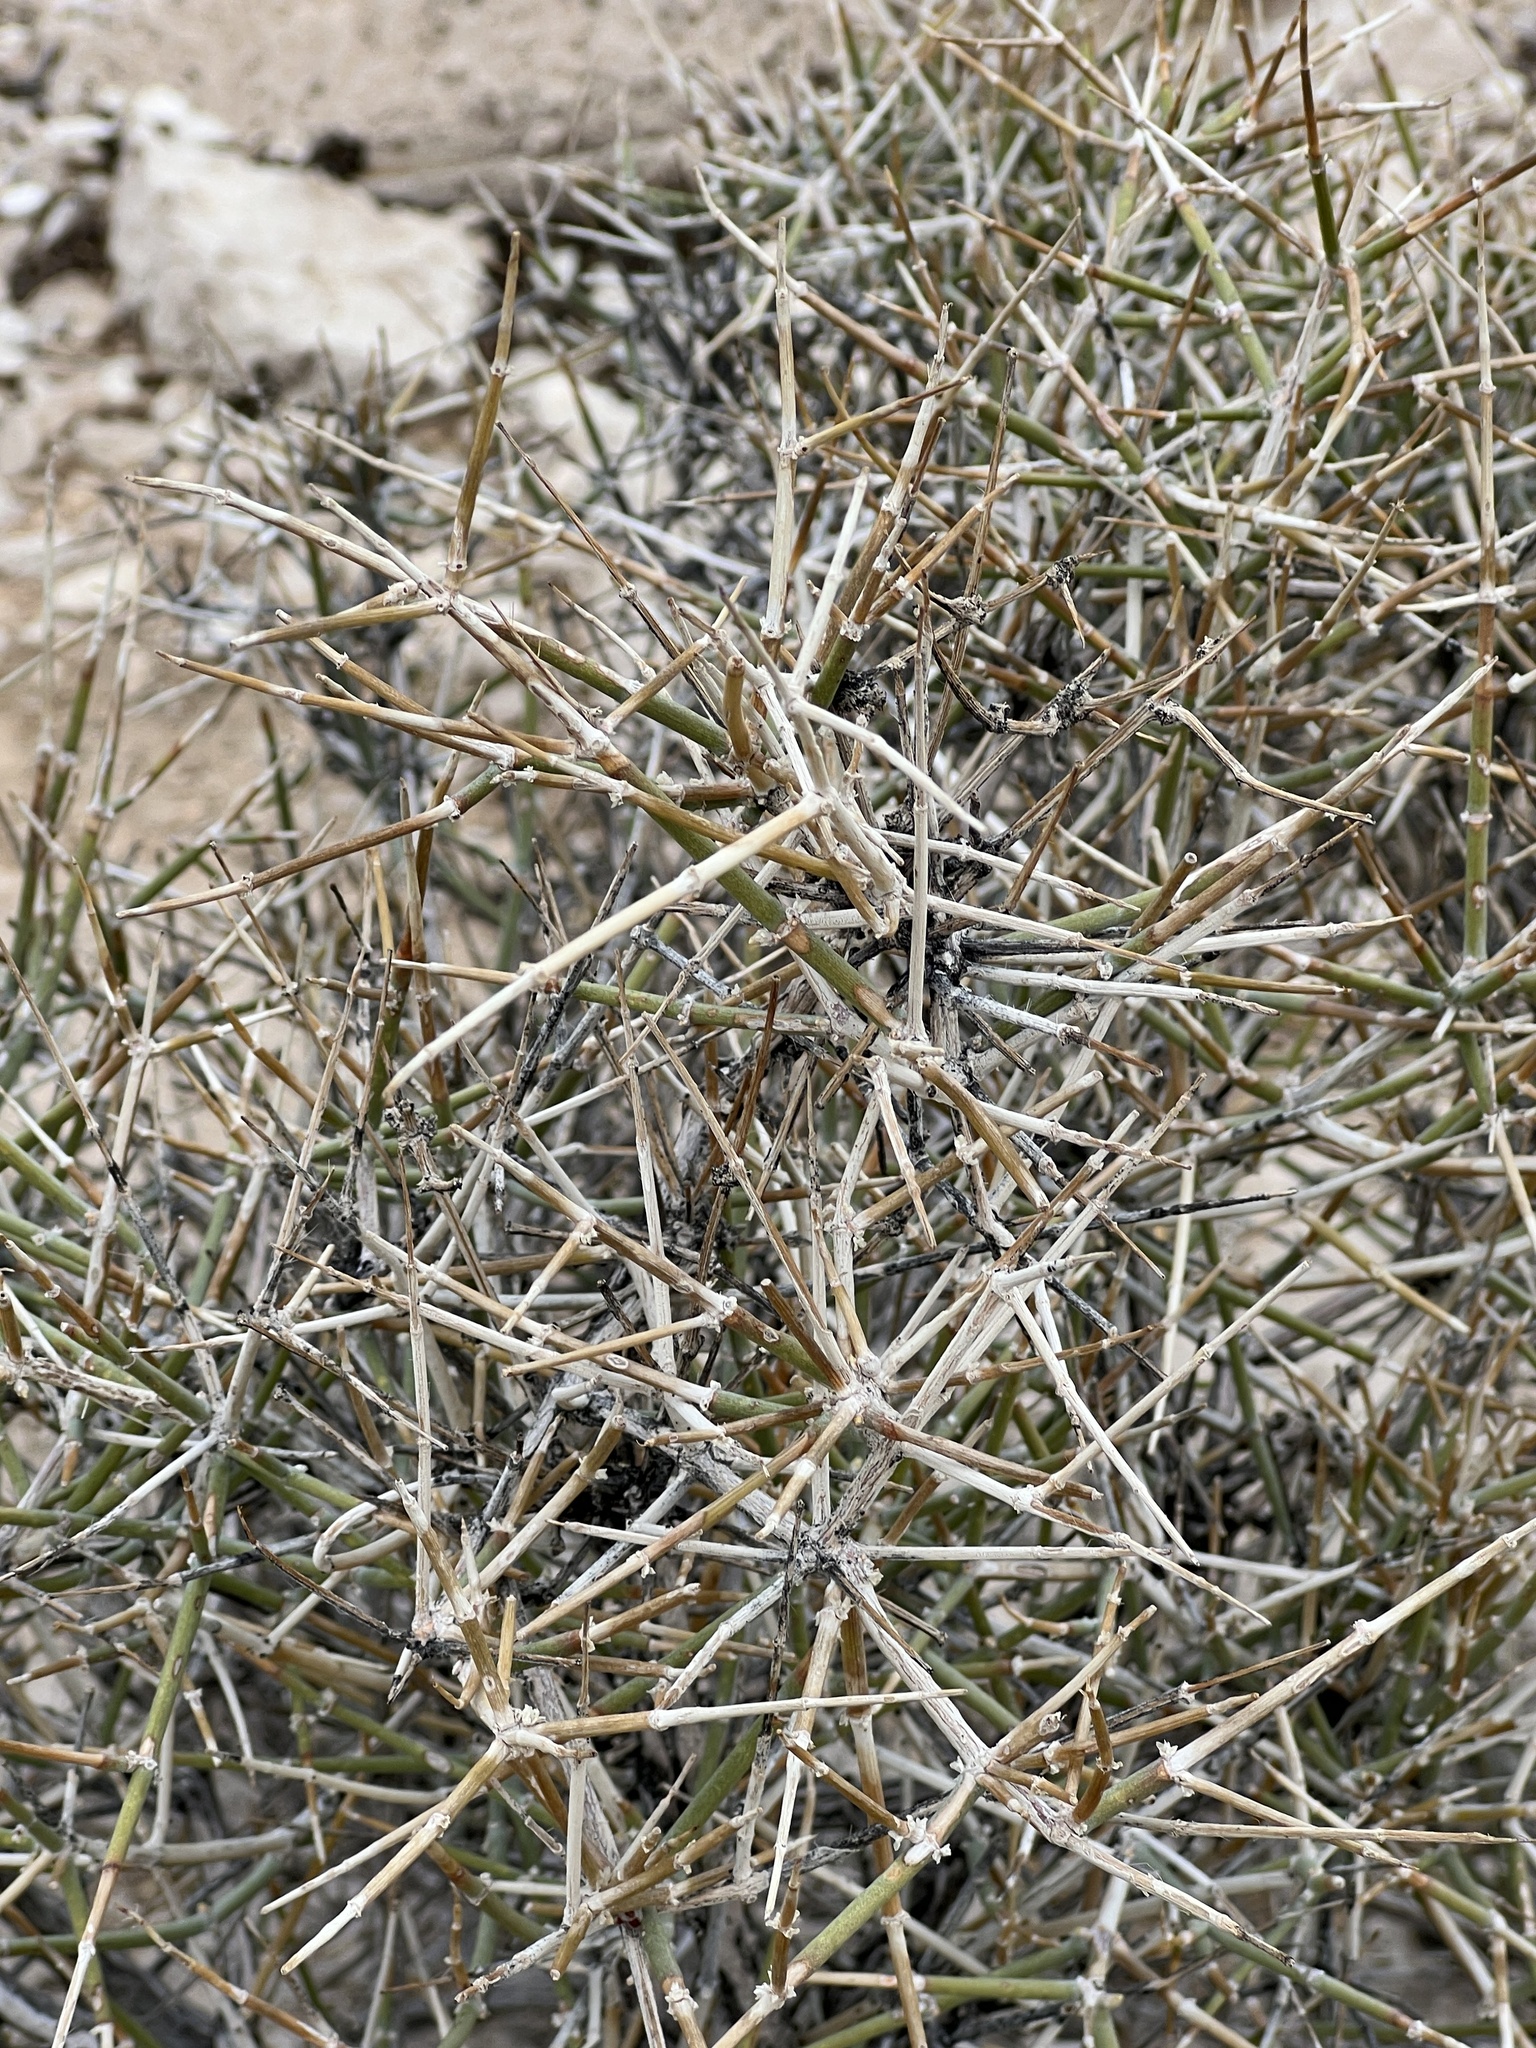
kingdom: Plantae
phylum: Tracheophyta
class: Gnetopsida
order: Ephedrales
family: Ephedraceae
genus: Ephedra
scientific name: Ephedra nevadensis
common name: Gray ephedra
